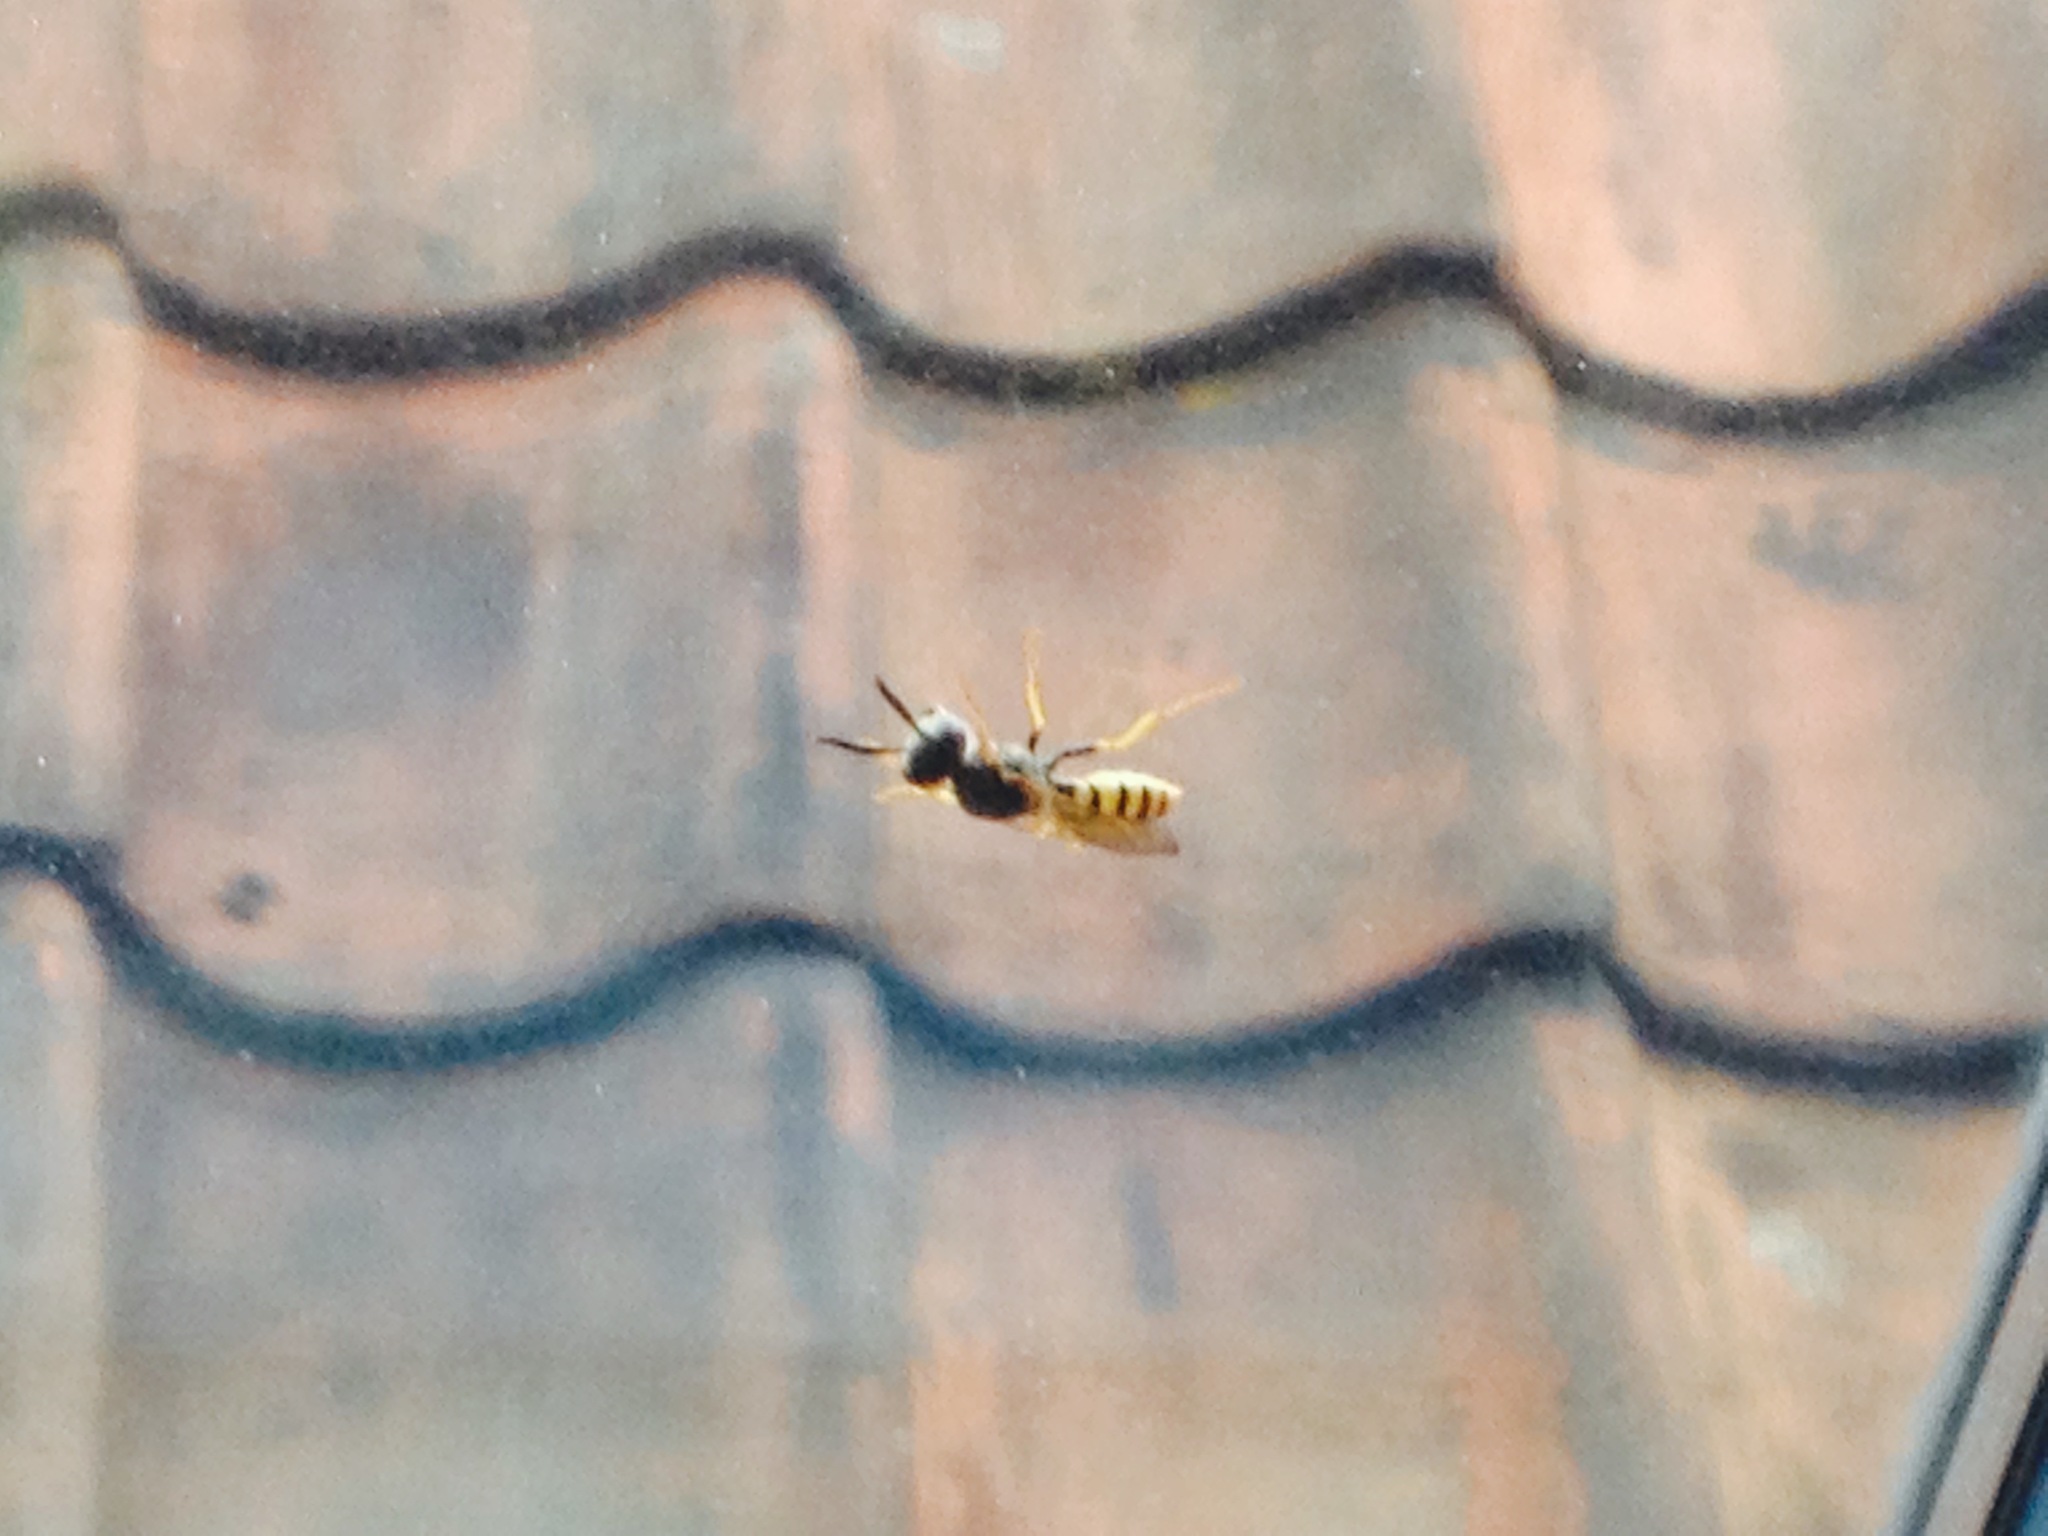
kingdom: Animalia
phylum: Arthropoda
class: Insecta
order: Hymenoptera
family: Crabronidae
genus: Philanthus
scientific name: Philanthus triangulum
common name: Bee wolf
